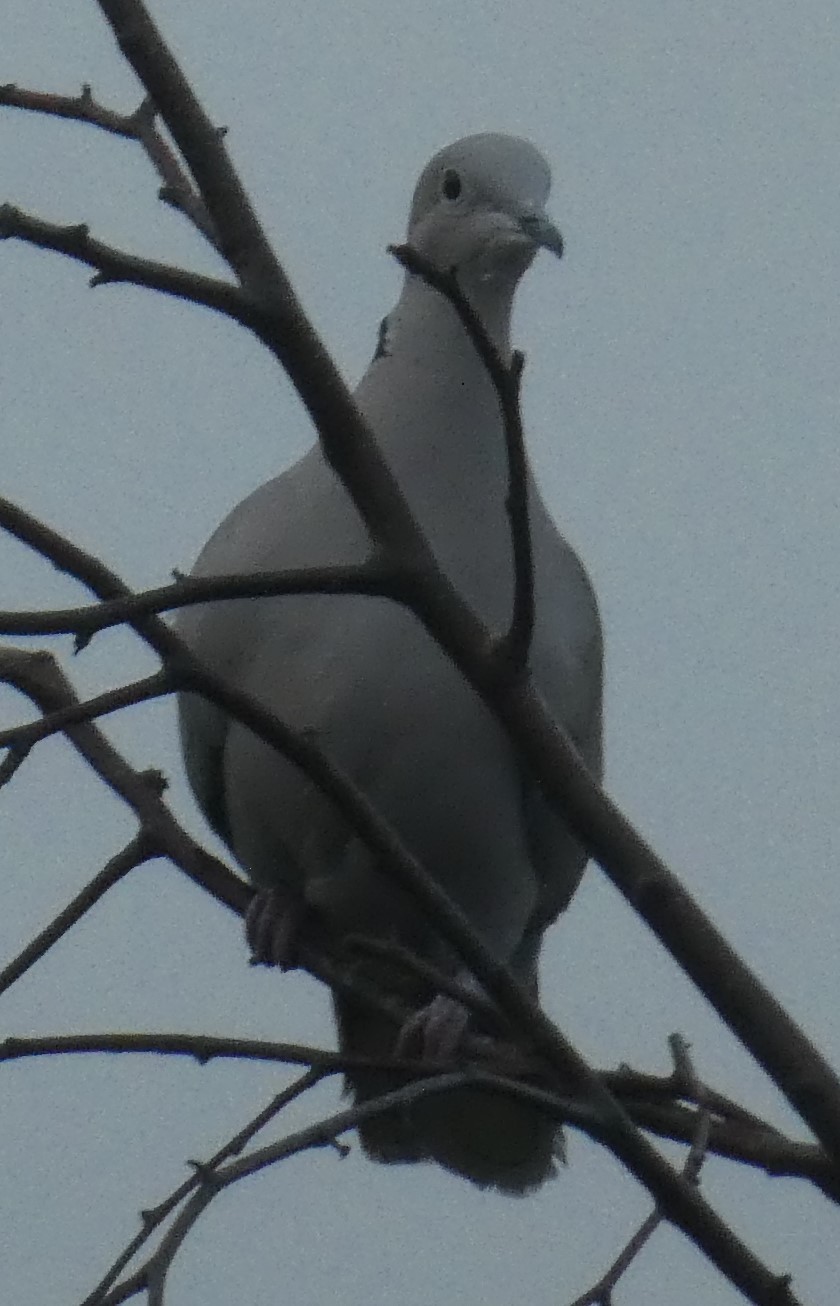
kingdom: Animalia
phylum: Chordata
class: Aves
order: Columbiformes
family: Columbidae
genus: Streptopelia
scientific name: Streptopelia decaocto
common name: Eurasian collared dove
